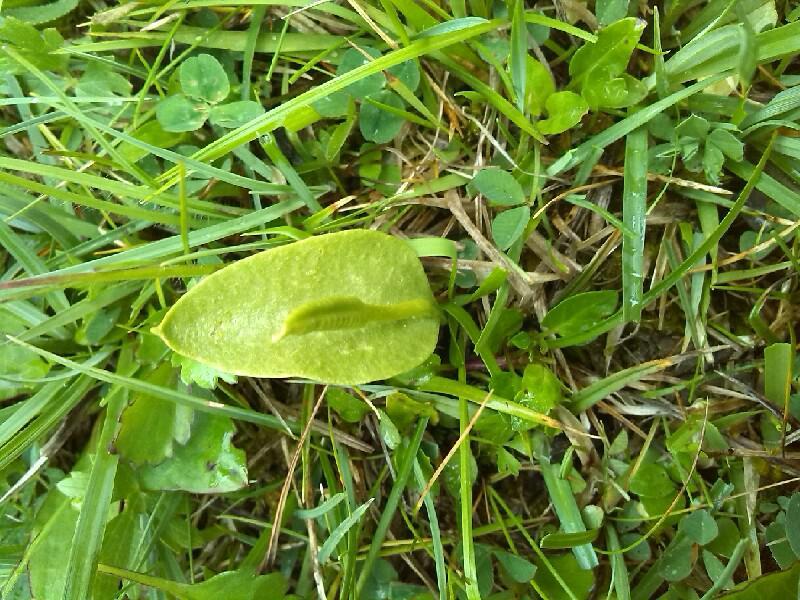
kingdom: Plantae
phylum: Tracheophyta
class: Polypodiopsida
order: Ophioglossales
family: Ophioglossaceae
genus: Ophioglossum
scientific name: Ophioglossum vulgatum
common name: Adder's-tongue
